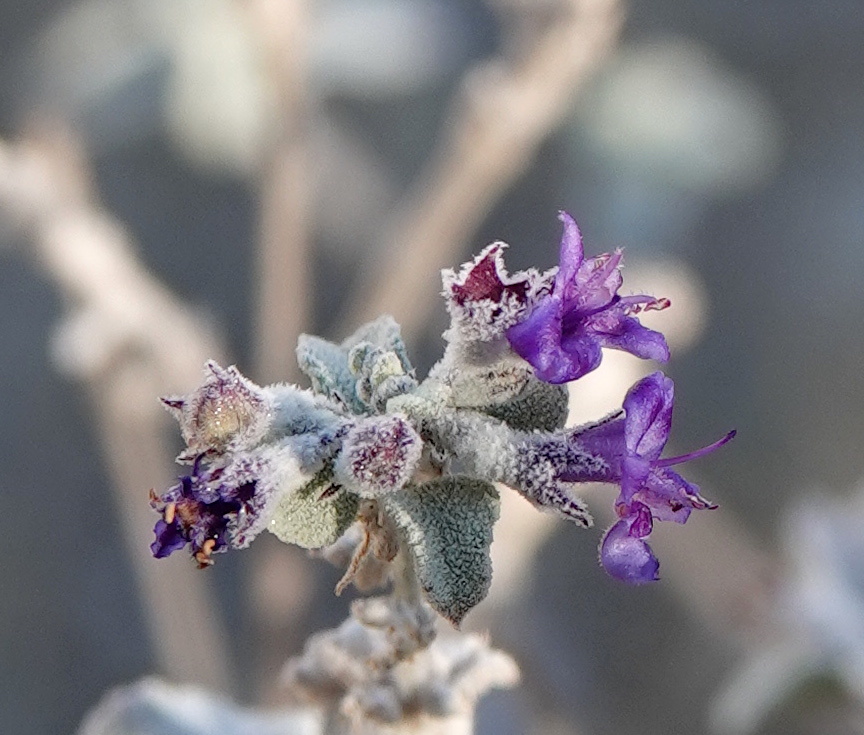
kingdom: Plantae
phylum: Tracheophyta
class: Magnoliopsida
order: Lamiales
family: Lamiaceae
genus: Condea
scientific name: Condea emoryi
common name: Chia
